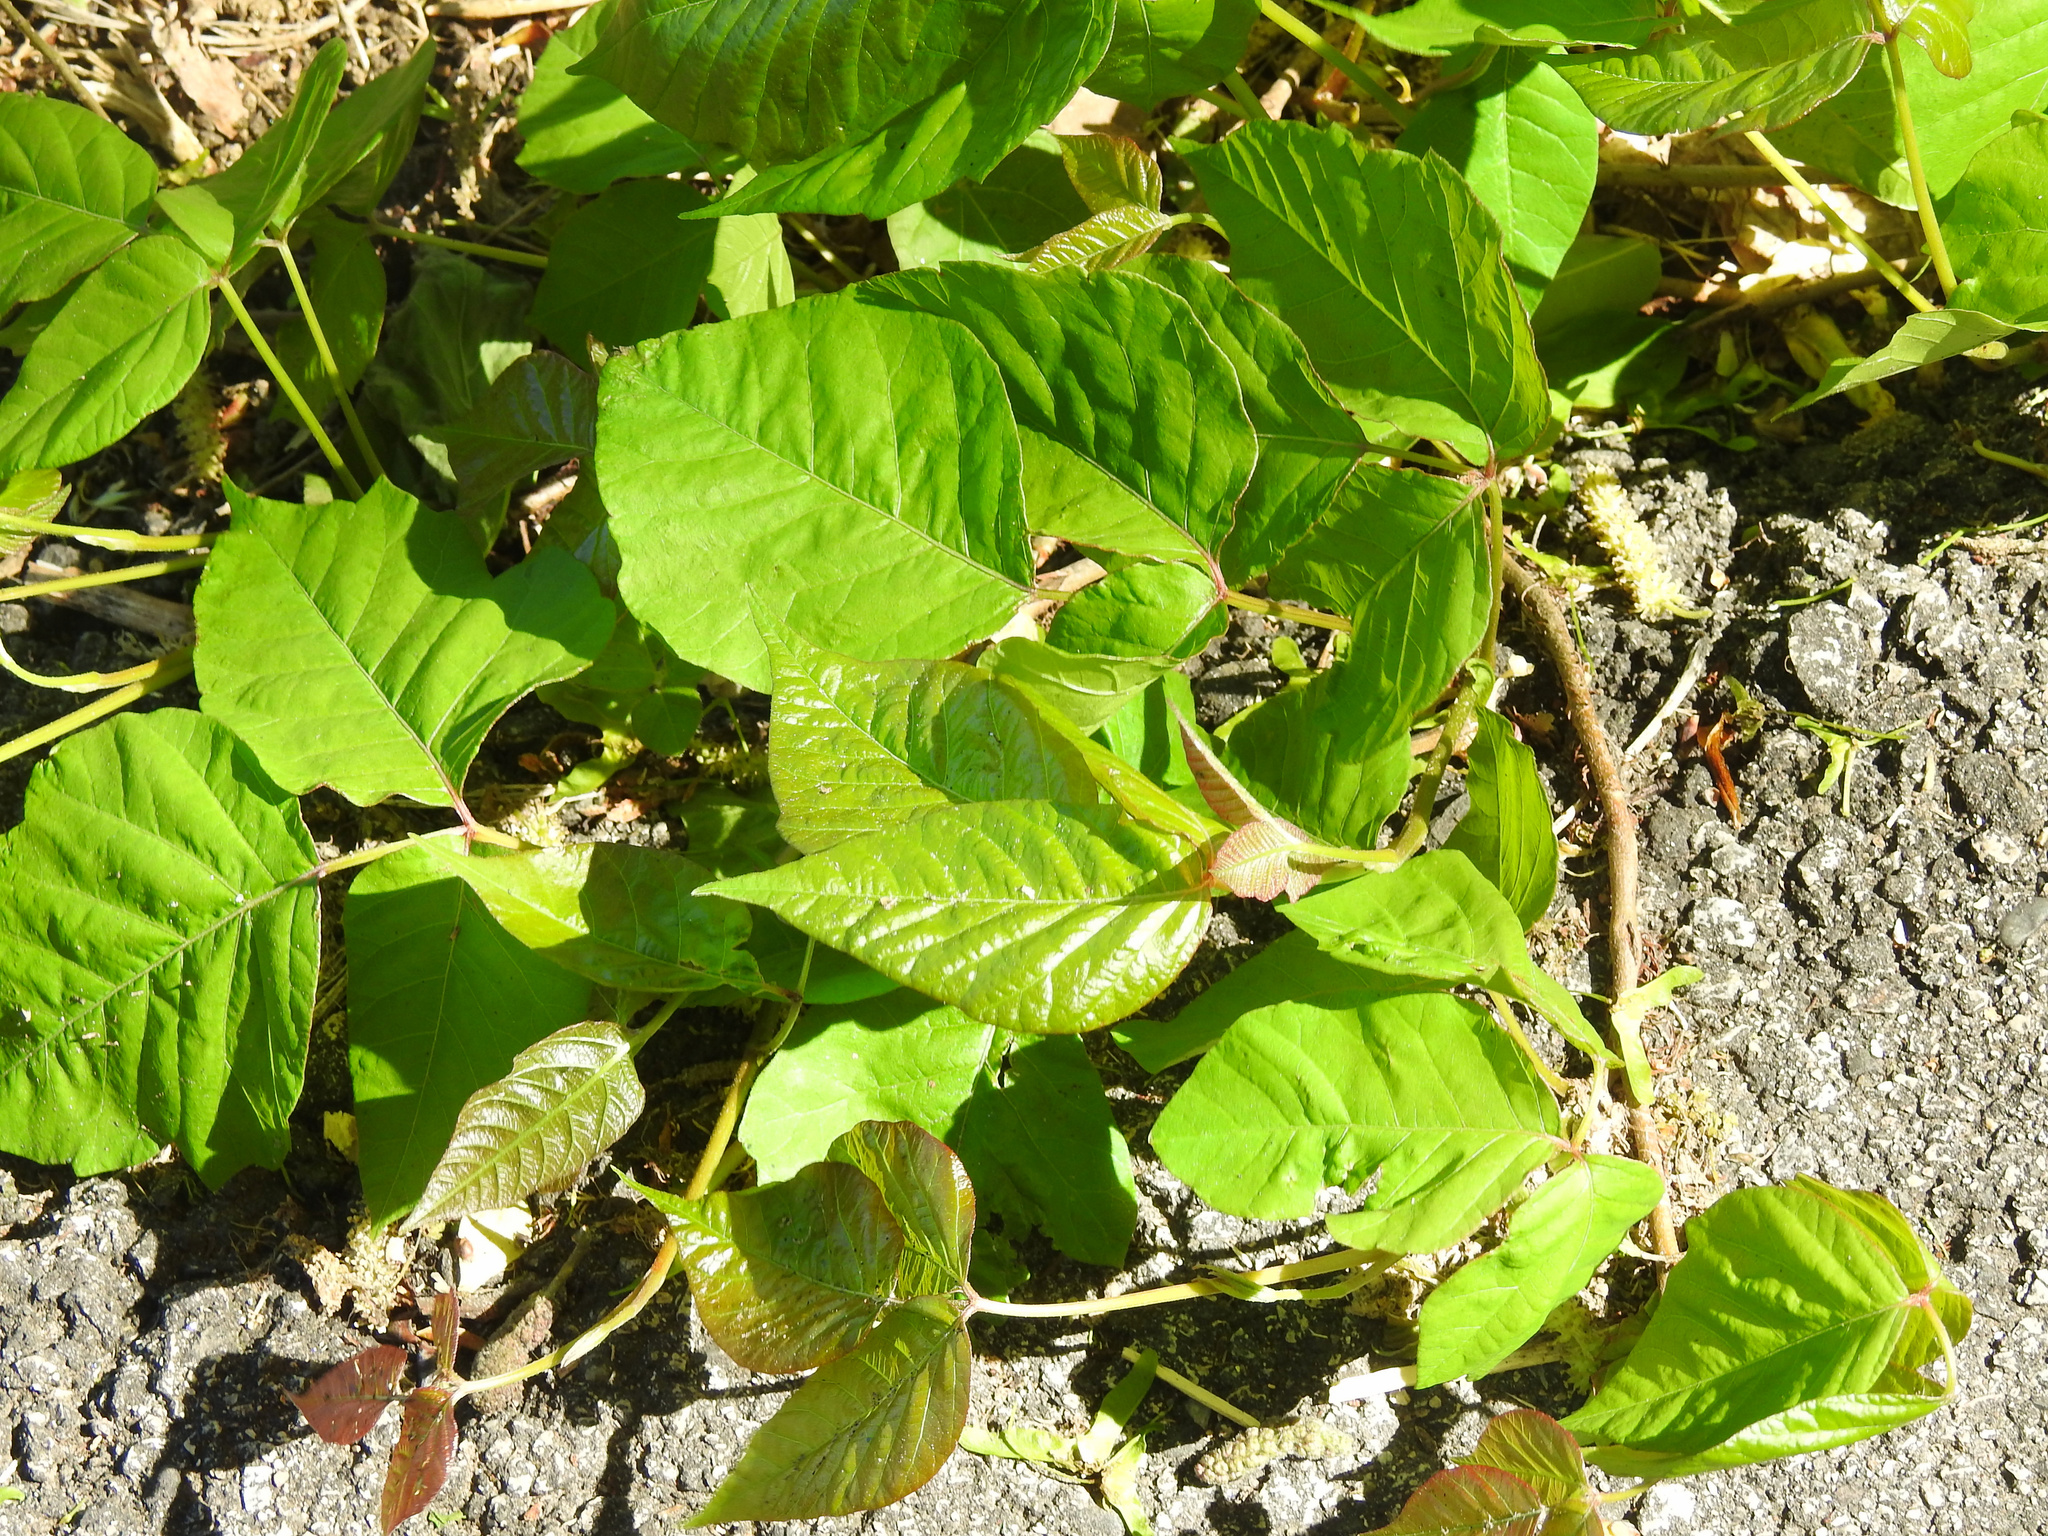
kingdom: Plantae
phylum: Tracheophyta
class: Magnoliopsida
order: Sapindales
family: Anacardiaceae
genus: Toxicodendron
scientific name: Toxicodendron radicans
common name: Poison ivy
